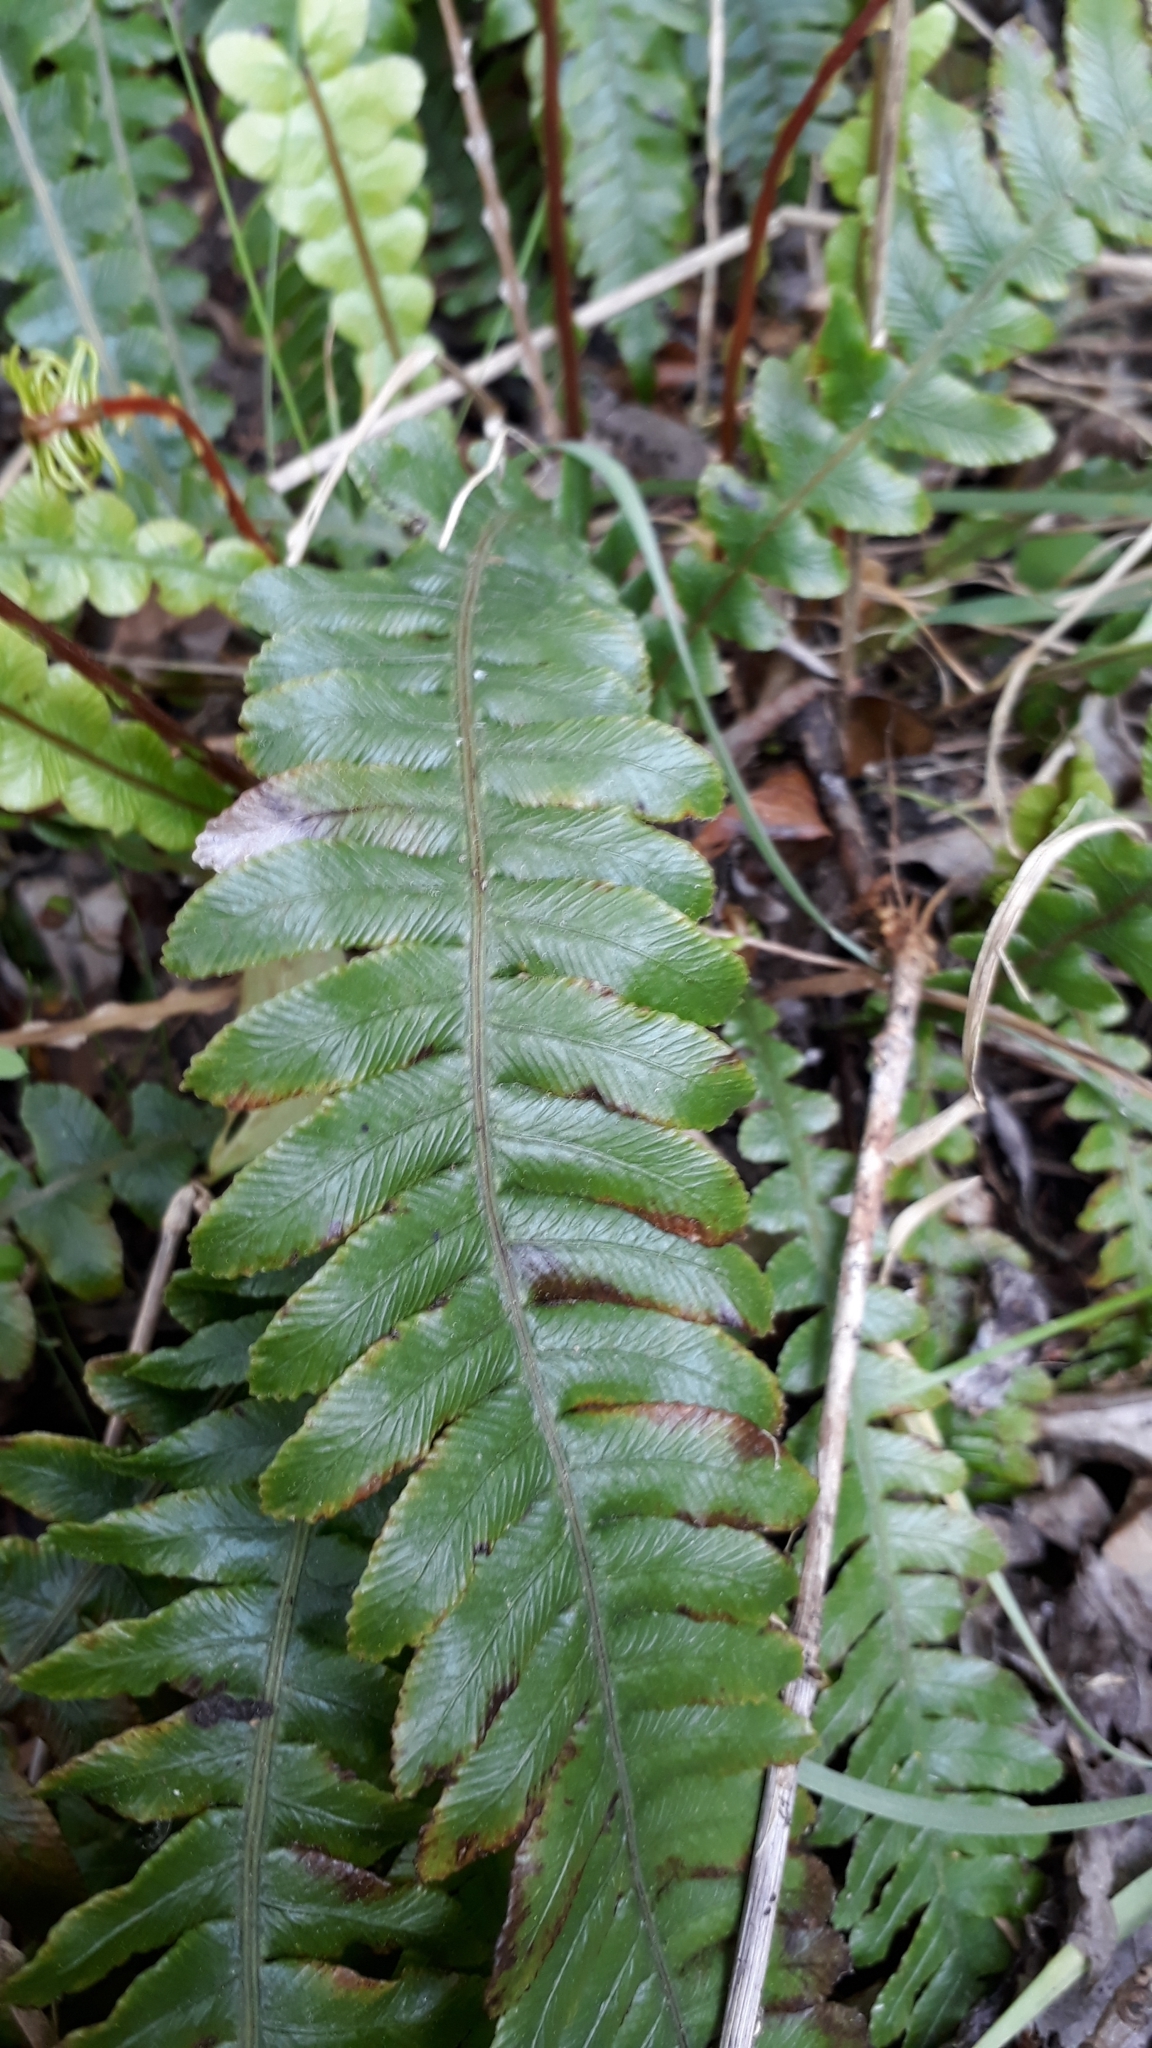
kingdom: Plantae
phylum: Tracheophyta
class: Polypodiopsida
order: Polypodiales
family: Blechnaceae
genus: Austroblechnum
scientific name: Austroblechnum lanceolatum
